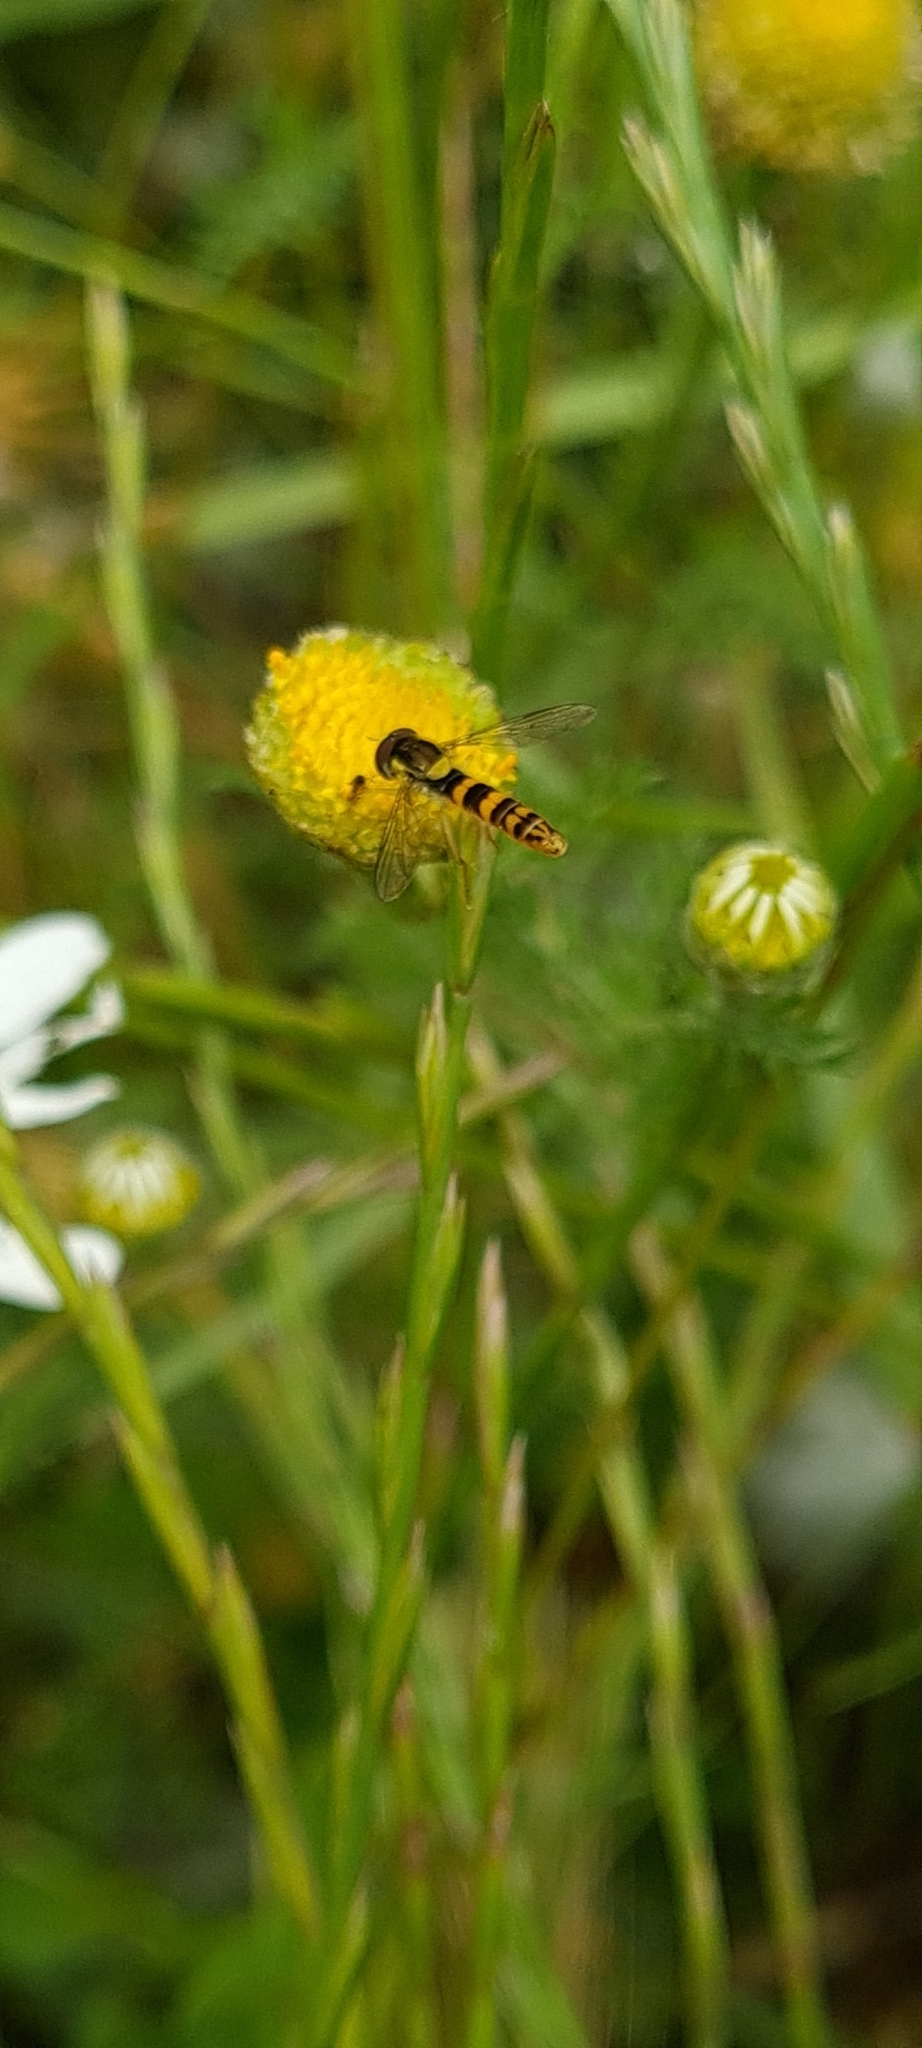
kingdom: Animalia
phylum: Arthropoda
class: Insecta
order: Diptera
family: Syrphidae
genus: Sphaerophoria
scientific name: Sphaerophoria scripta
